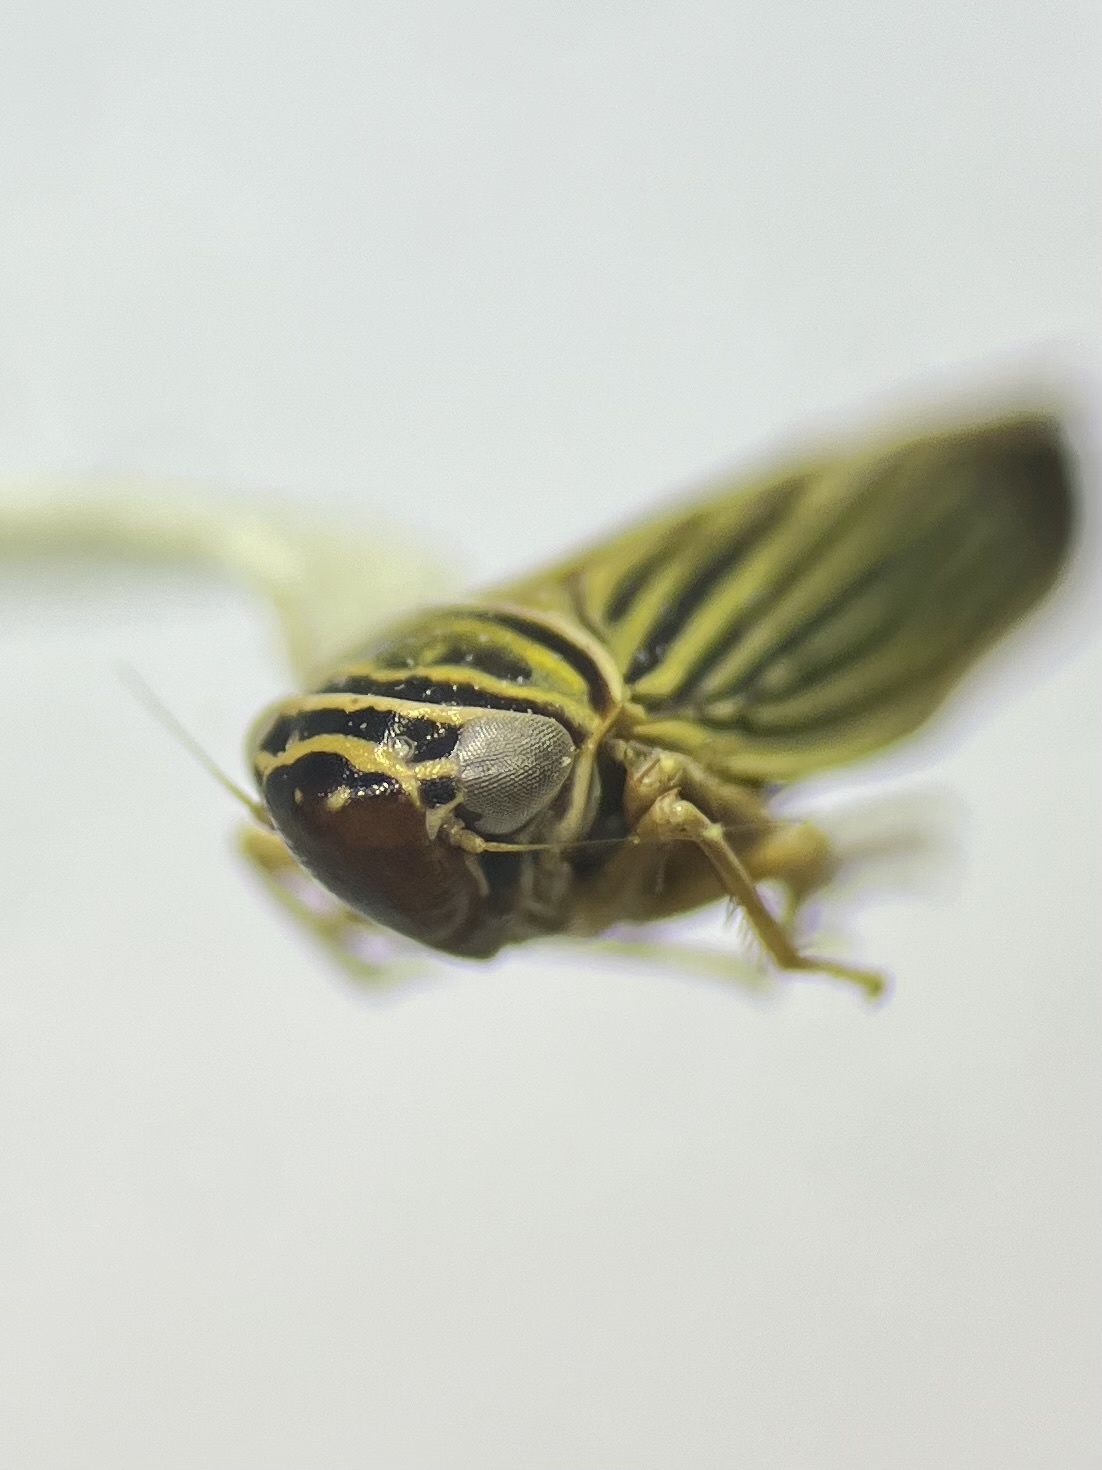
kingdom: Animalia
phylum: Arthropoda
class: Insecta
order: Hemiptera
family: Cicadellidae
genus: Tylozygus
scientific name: Tylozygus bifidus
